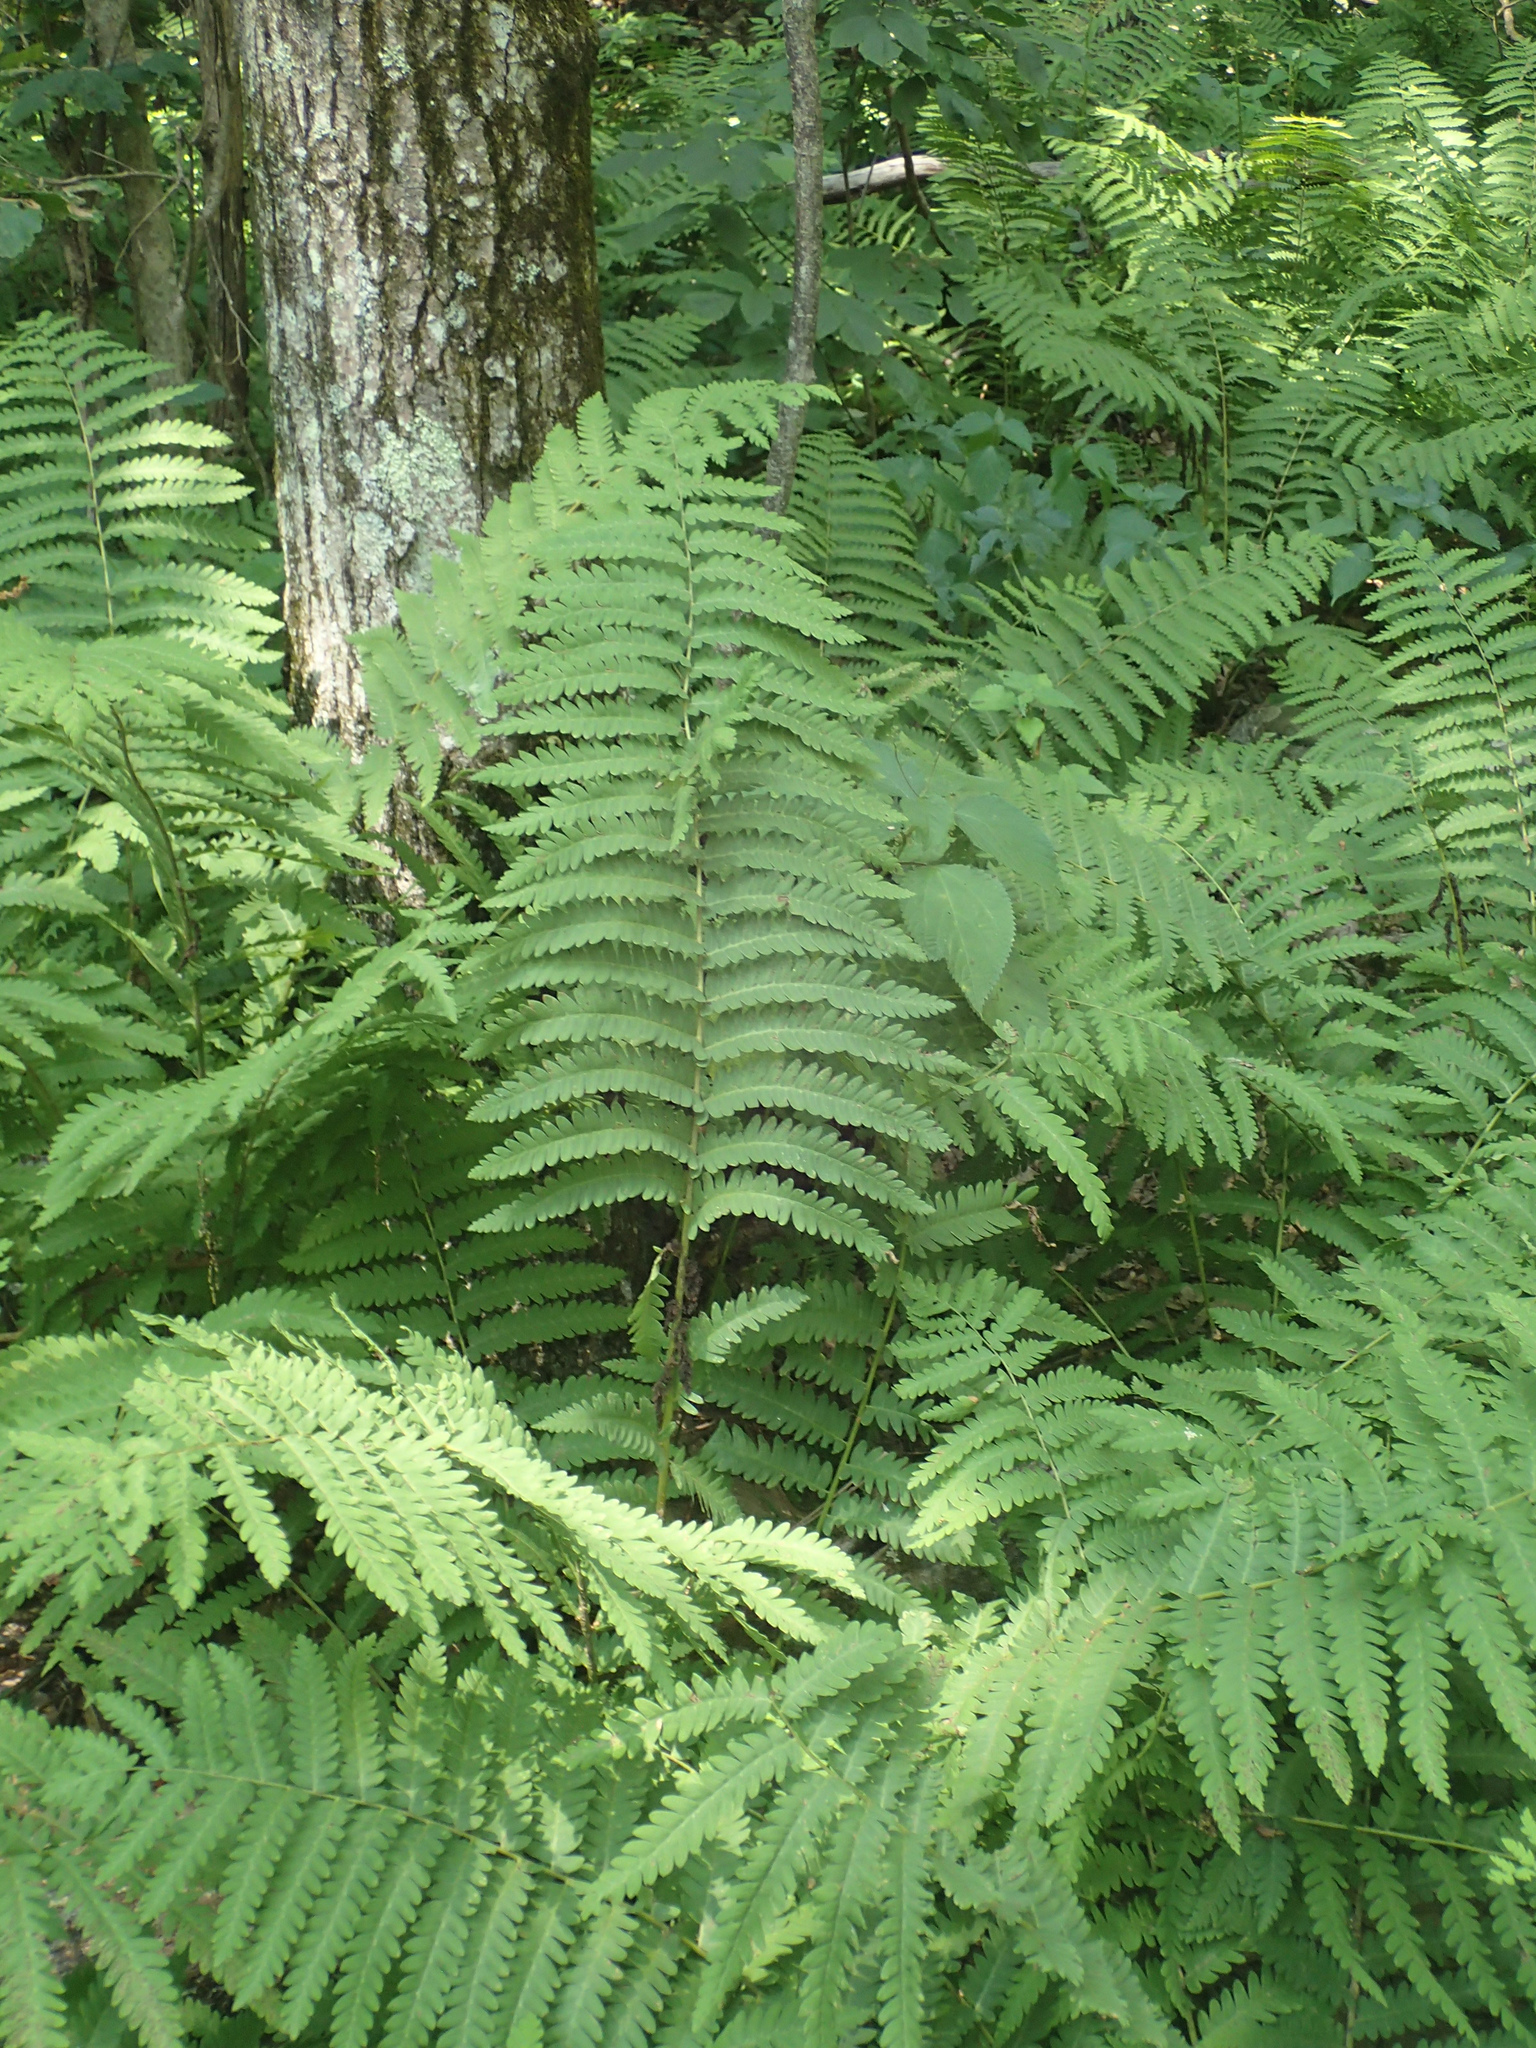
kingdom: Plantae
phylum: Tracheophyta
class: Polypodiopsida
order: Osmundales
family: Osmundaceae
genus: Claytosmunda
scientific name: Claytosmunda claytoniana
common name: Clayton's fern
